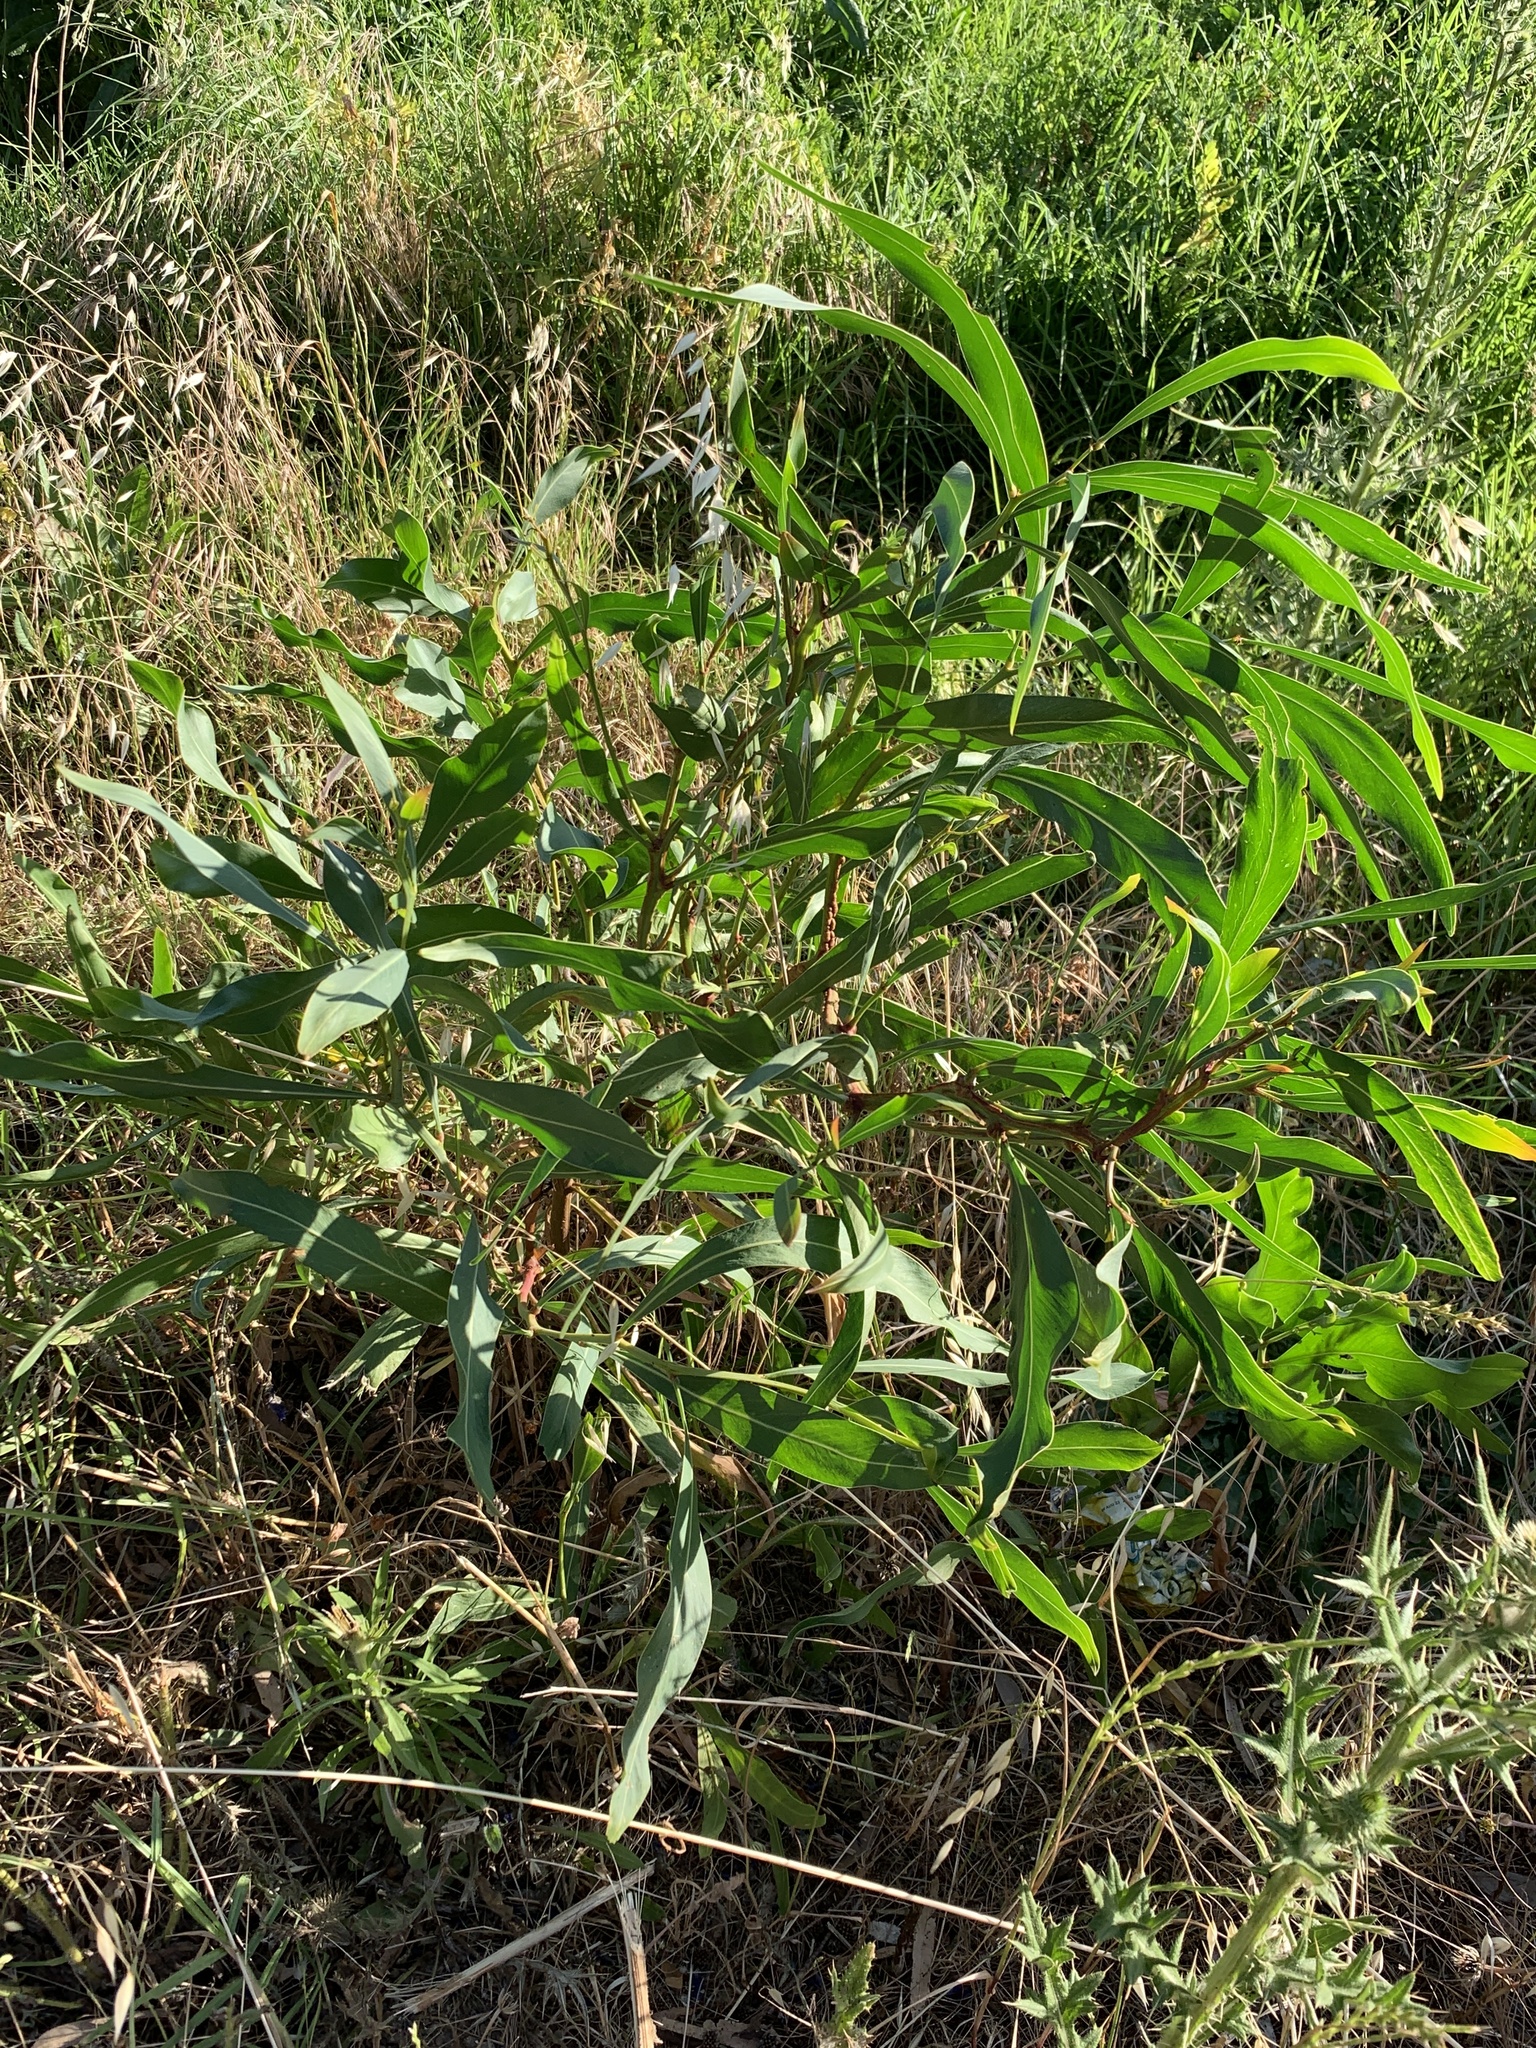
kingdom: Plantae
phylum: Tracheophyta
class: Magnoliopsida
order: Fabales
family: Fabaceae
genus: Acacia
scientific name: Acacia saligna
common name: Orange wattle
